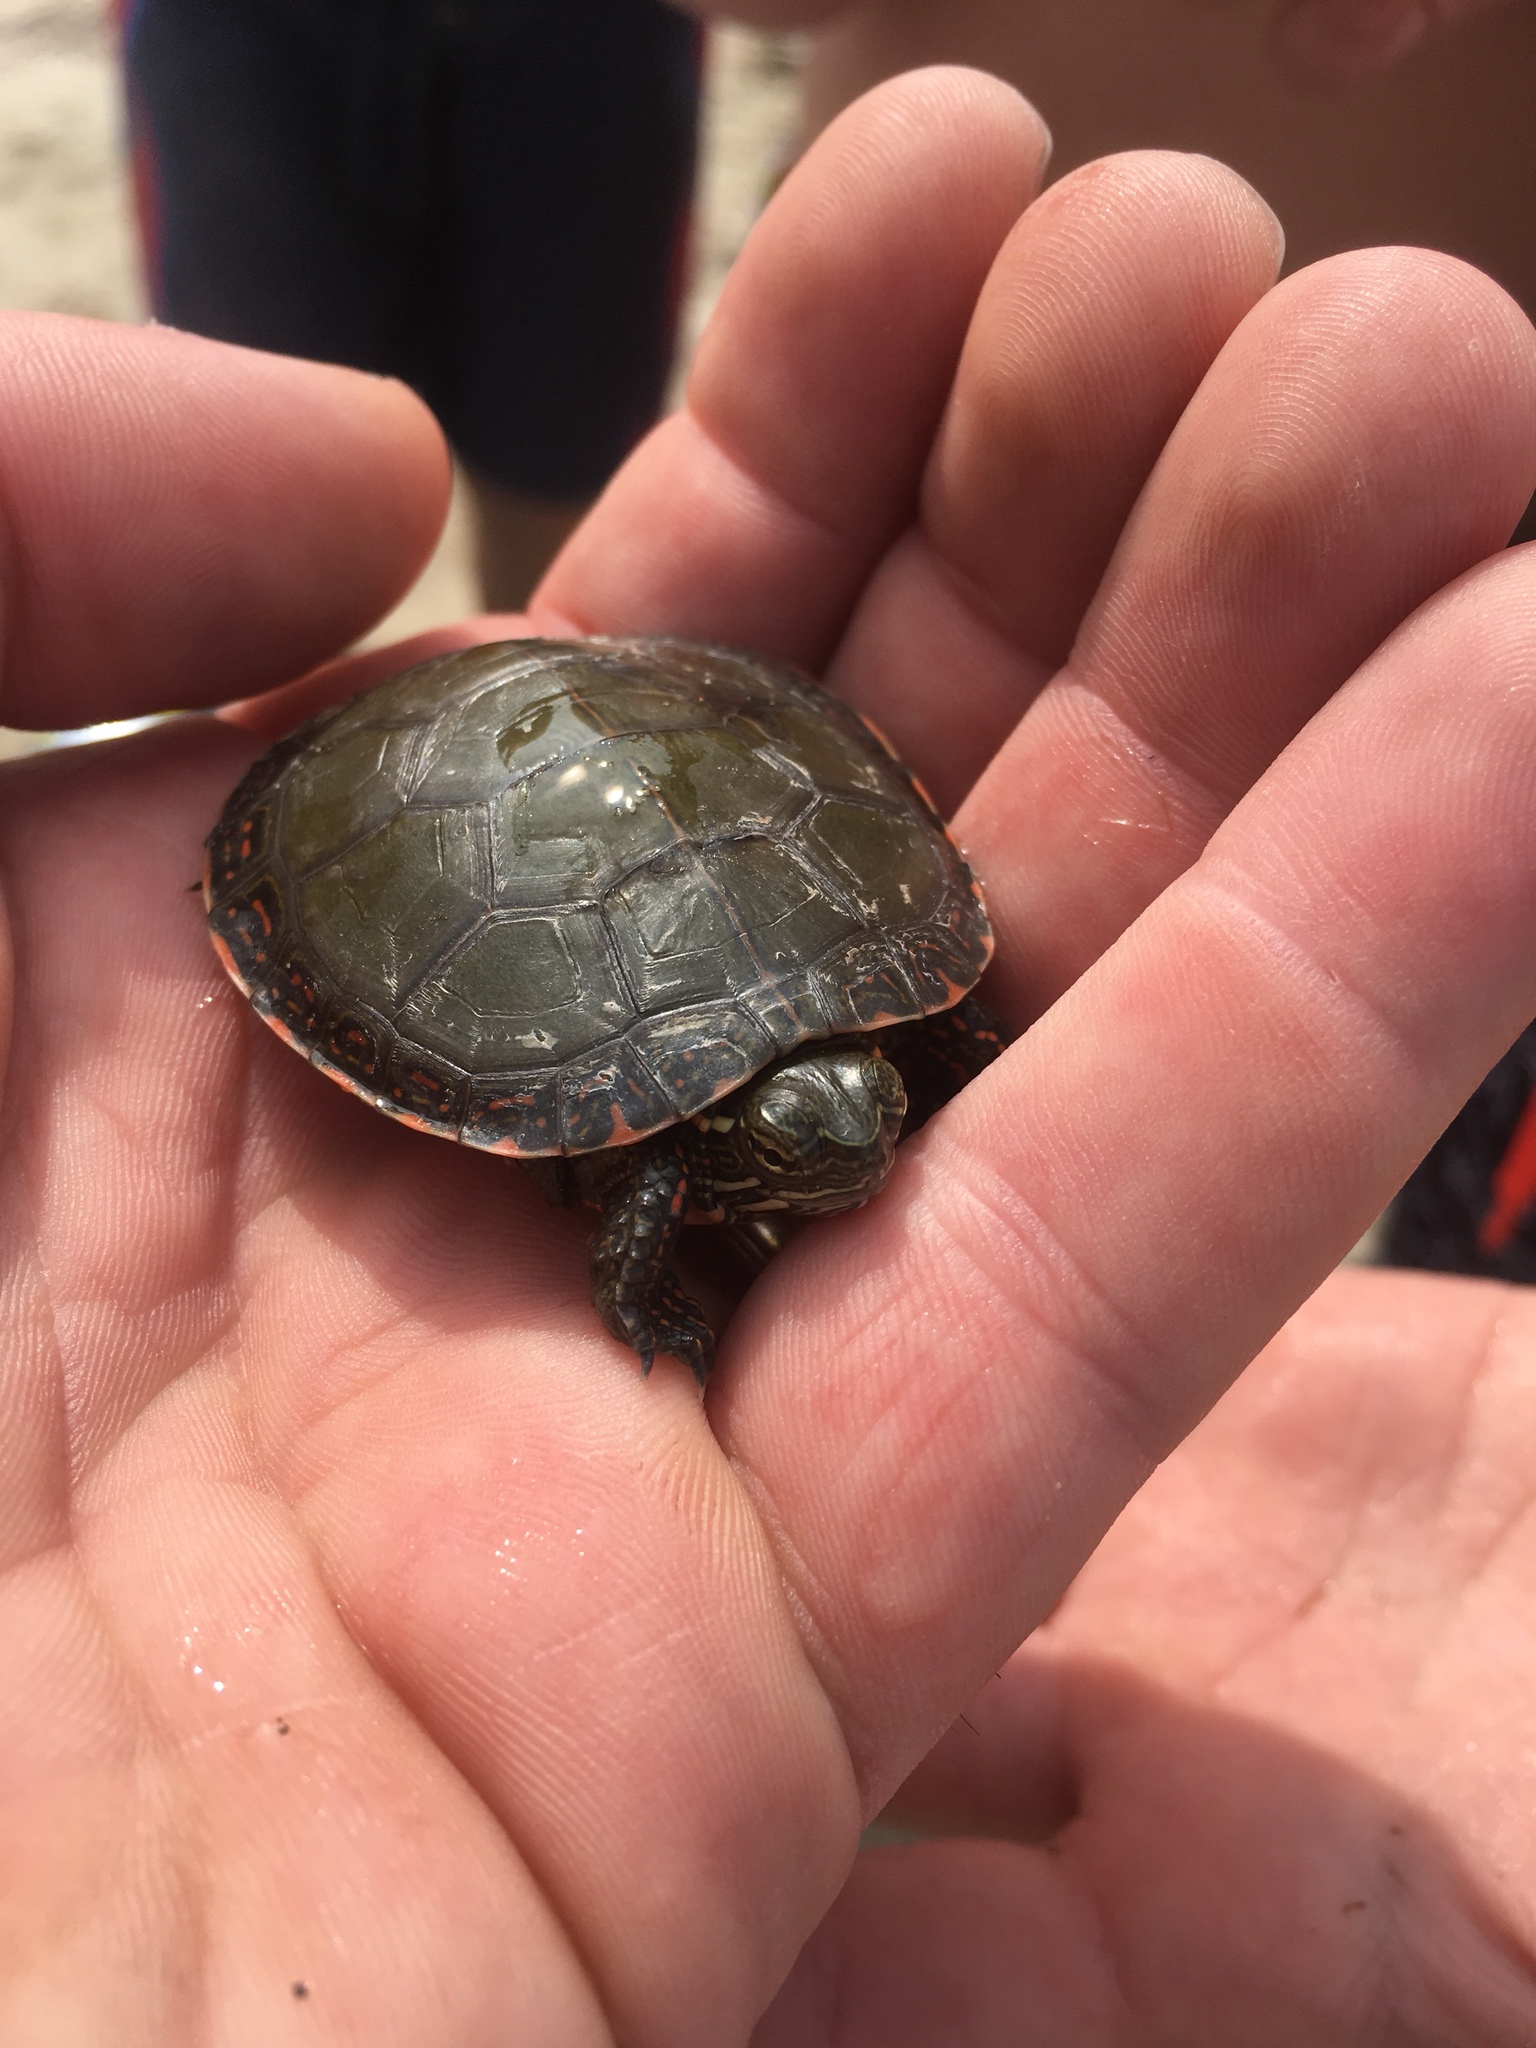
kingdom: Animalia
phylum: Chordata
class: Testudines
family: Emydidae
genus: Chrysemys
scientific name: Chrysemys picta
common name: Painted turtle
